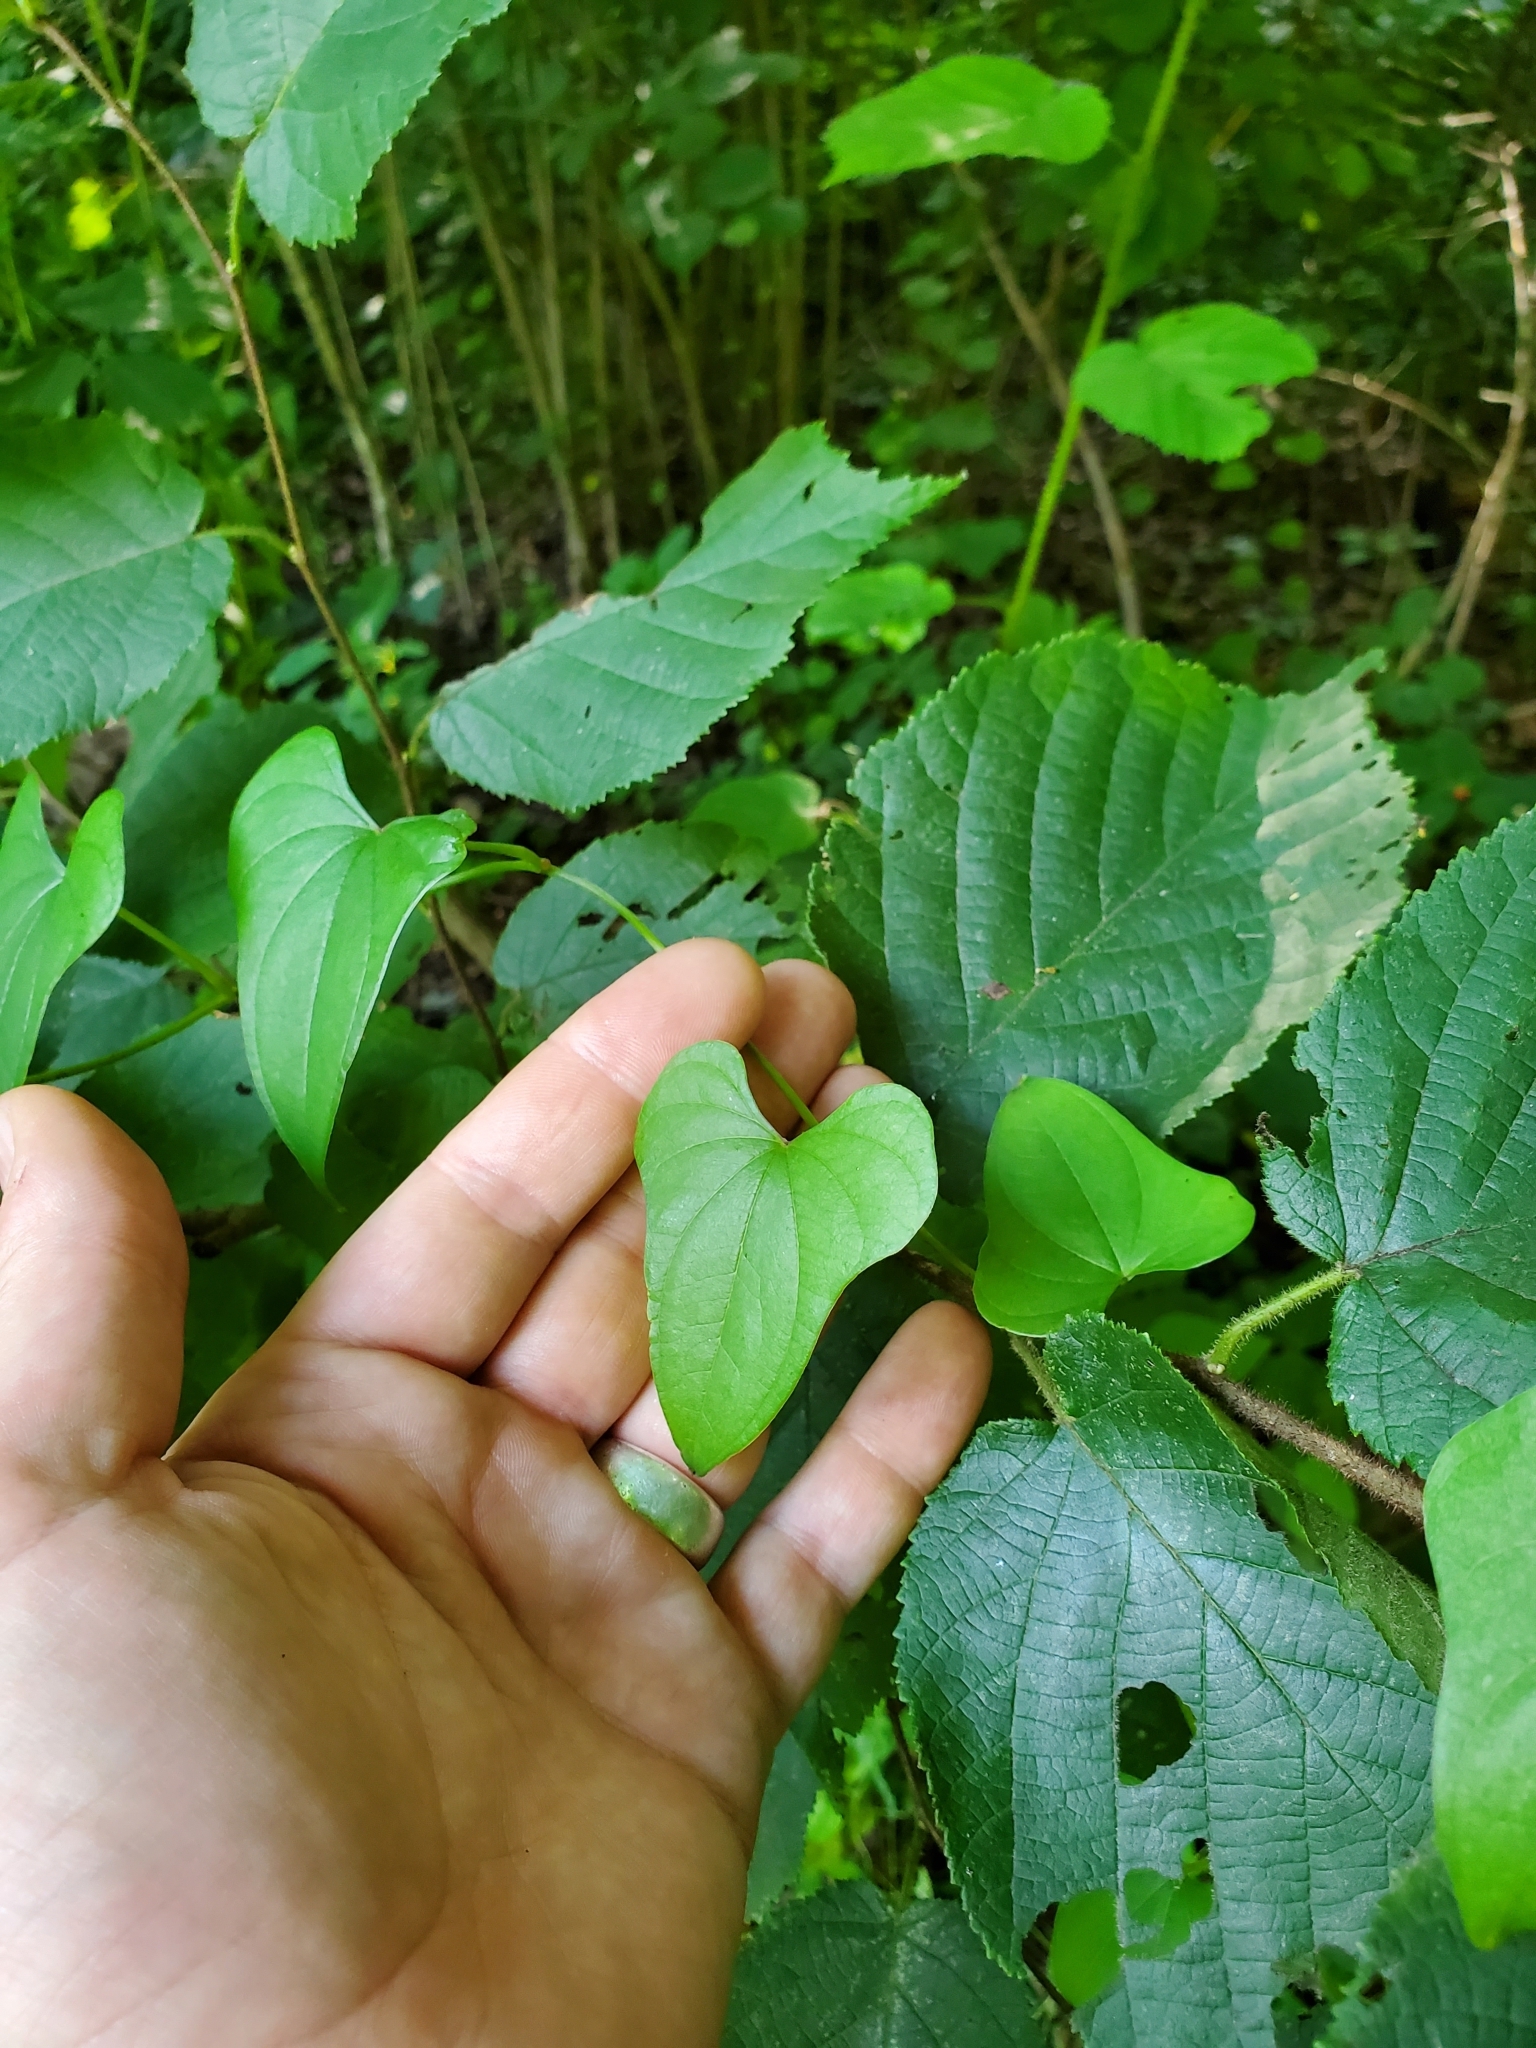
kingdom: Plantae
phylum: Tracheophyta
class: Liliopsida
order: Dioscoreales
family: Dioscoreaceae
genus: Dioscorea
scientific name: Dioscorea polystachya
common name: Chinese yam
